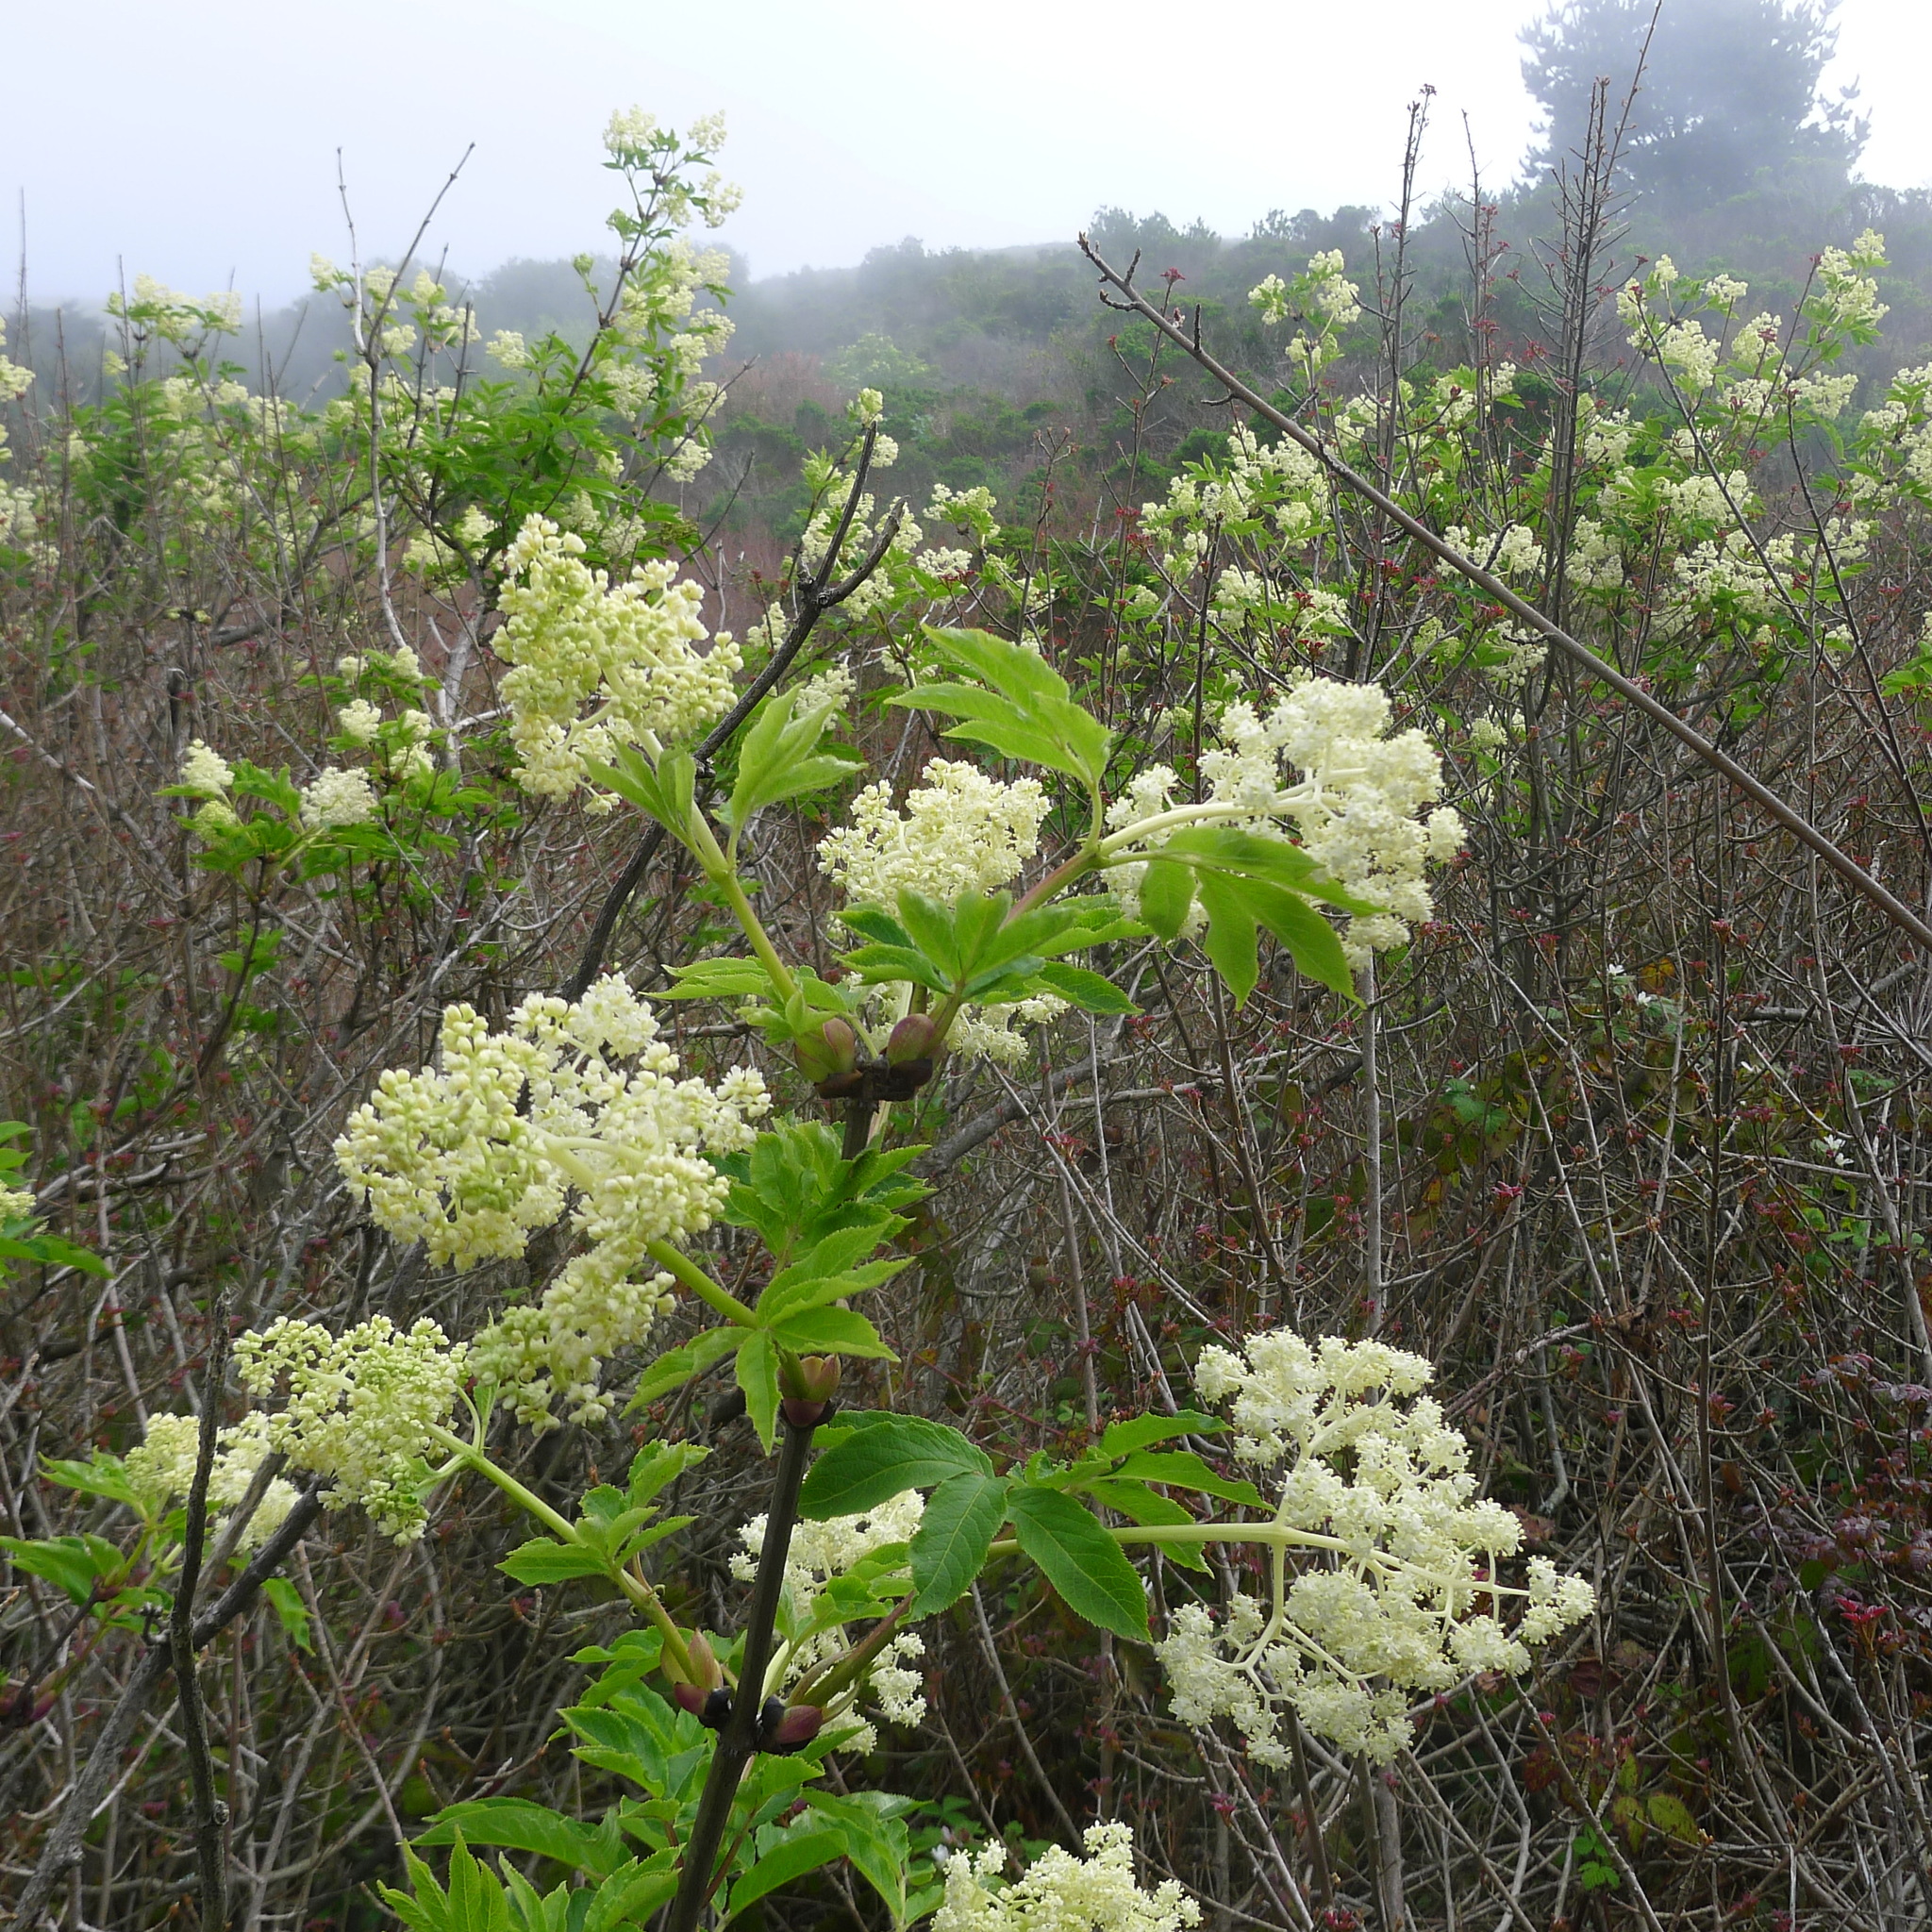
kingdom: Plantae
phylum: Tracheophyta
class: Magnoliopsida
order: Dipsacales
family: Viburnaceae
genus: Sambucus
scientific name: Sambucus racemosa
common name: Red-berried elder
